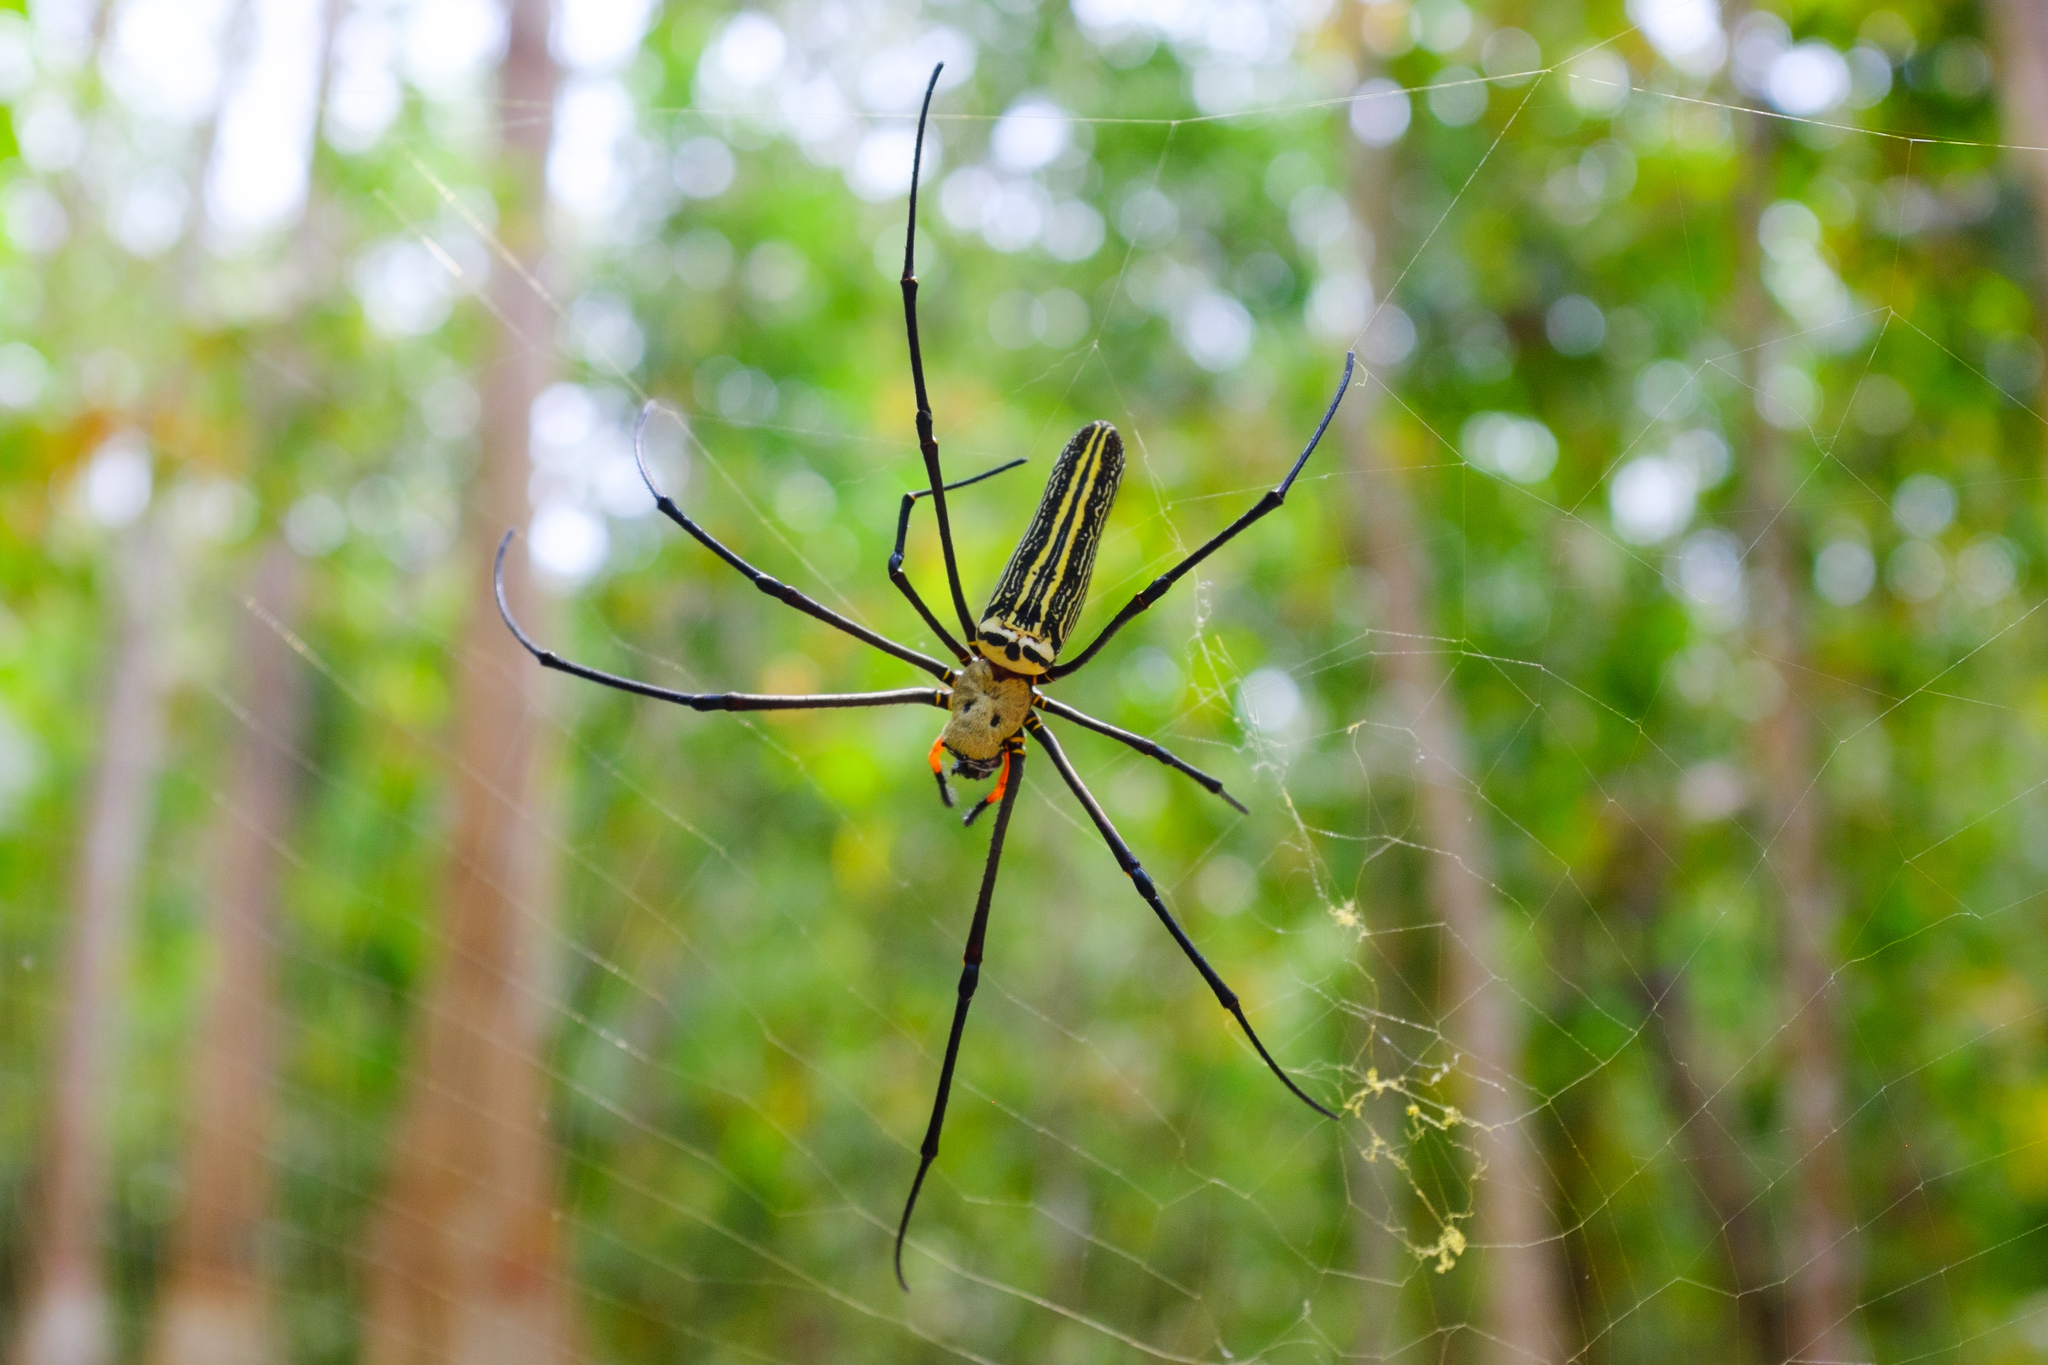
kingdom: Animalia
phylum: Arthropoda
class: Arachnida
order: Araneae
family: Araneidae
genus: Nephila
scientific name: Nephila pilipes
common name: Giant golden orb weaver
